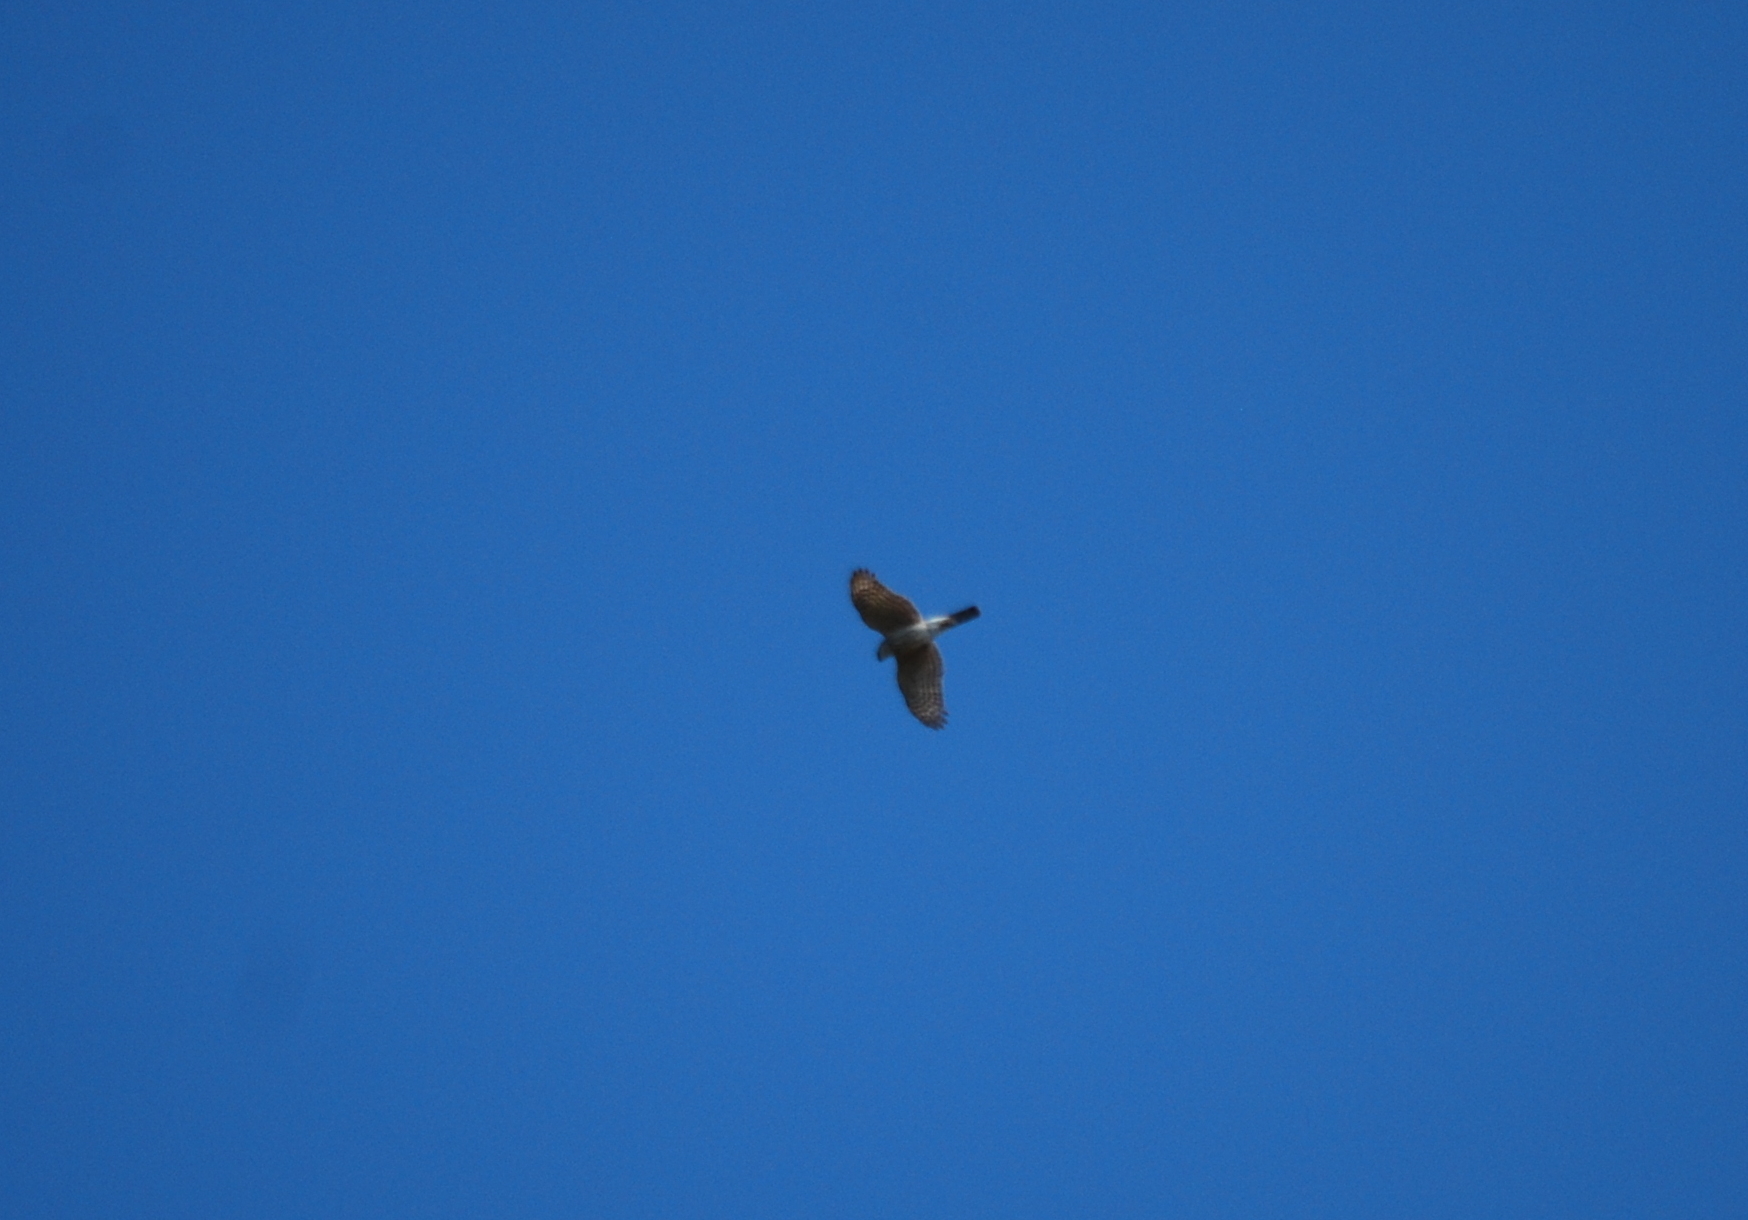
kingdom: Animalia
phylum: Chordata
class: Aves
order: Accipitriformes
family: Accipitridae
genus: Accipiter
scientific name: Accipiter striatus
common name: Sharp-shinned hawk
